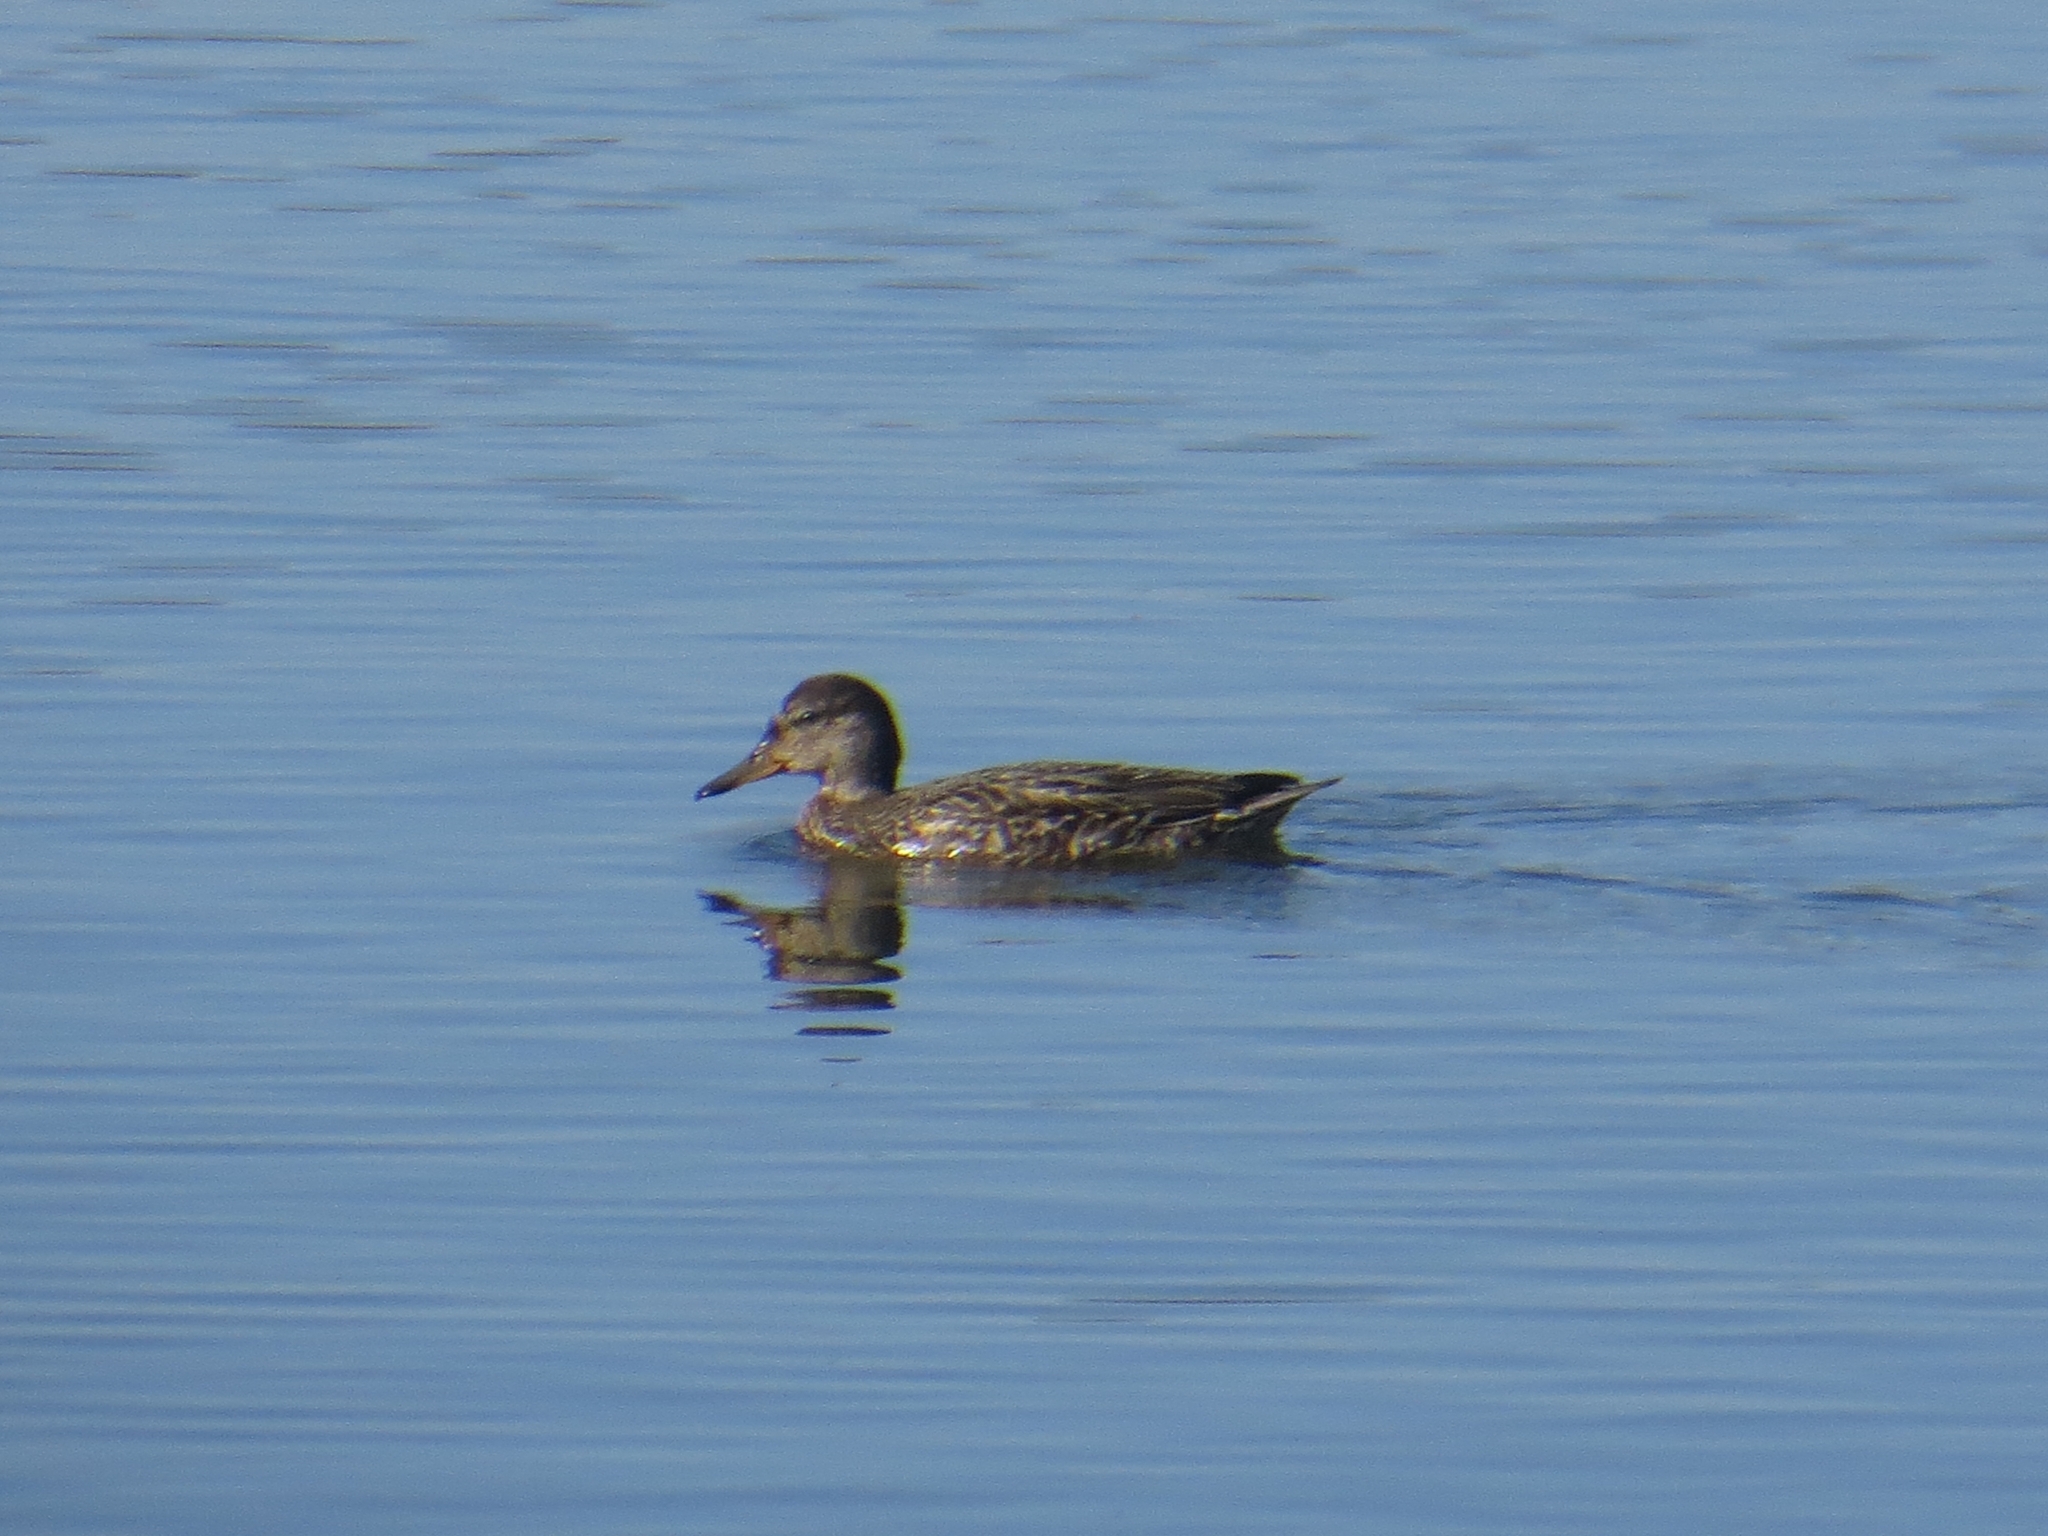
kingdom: Animalia
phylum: Chordata
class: Aves
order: Anseriformes
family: Anatidae
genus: Anas
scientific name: Anas crecca
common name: Eurasian teal
